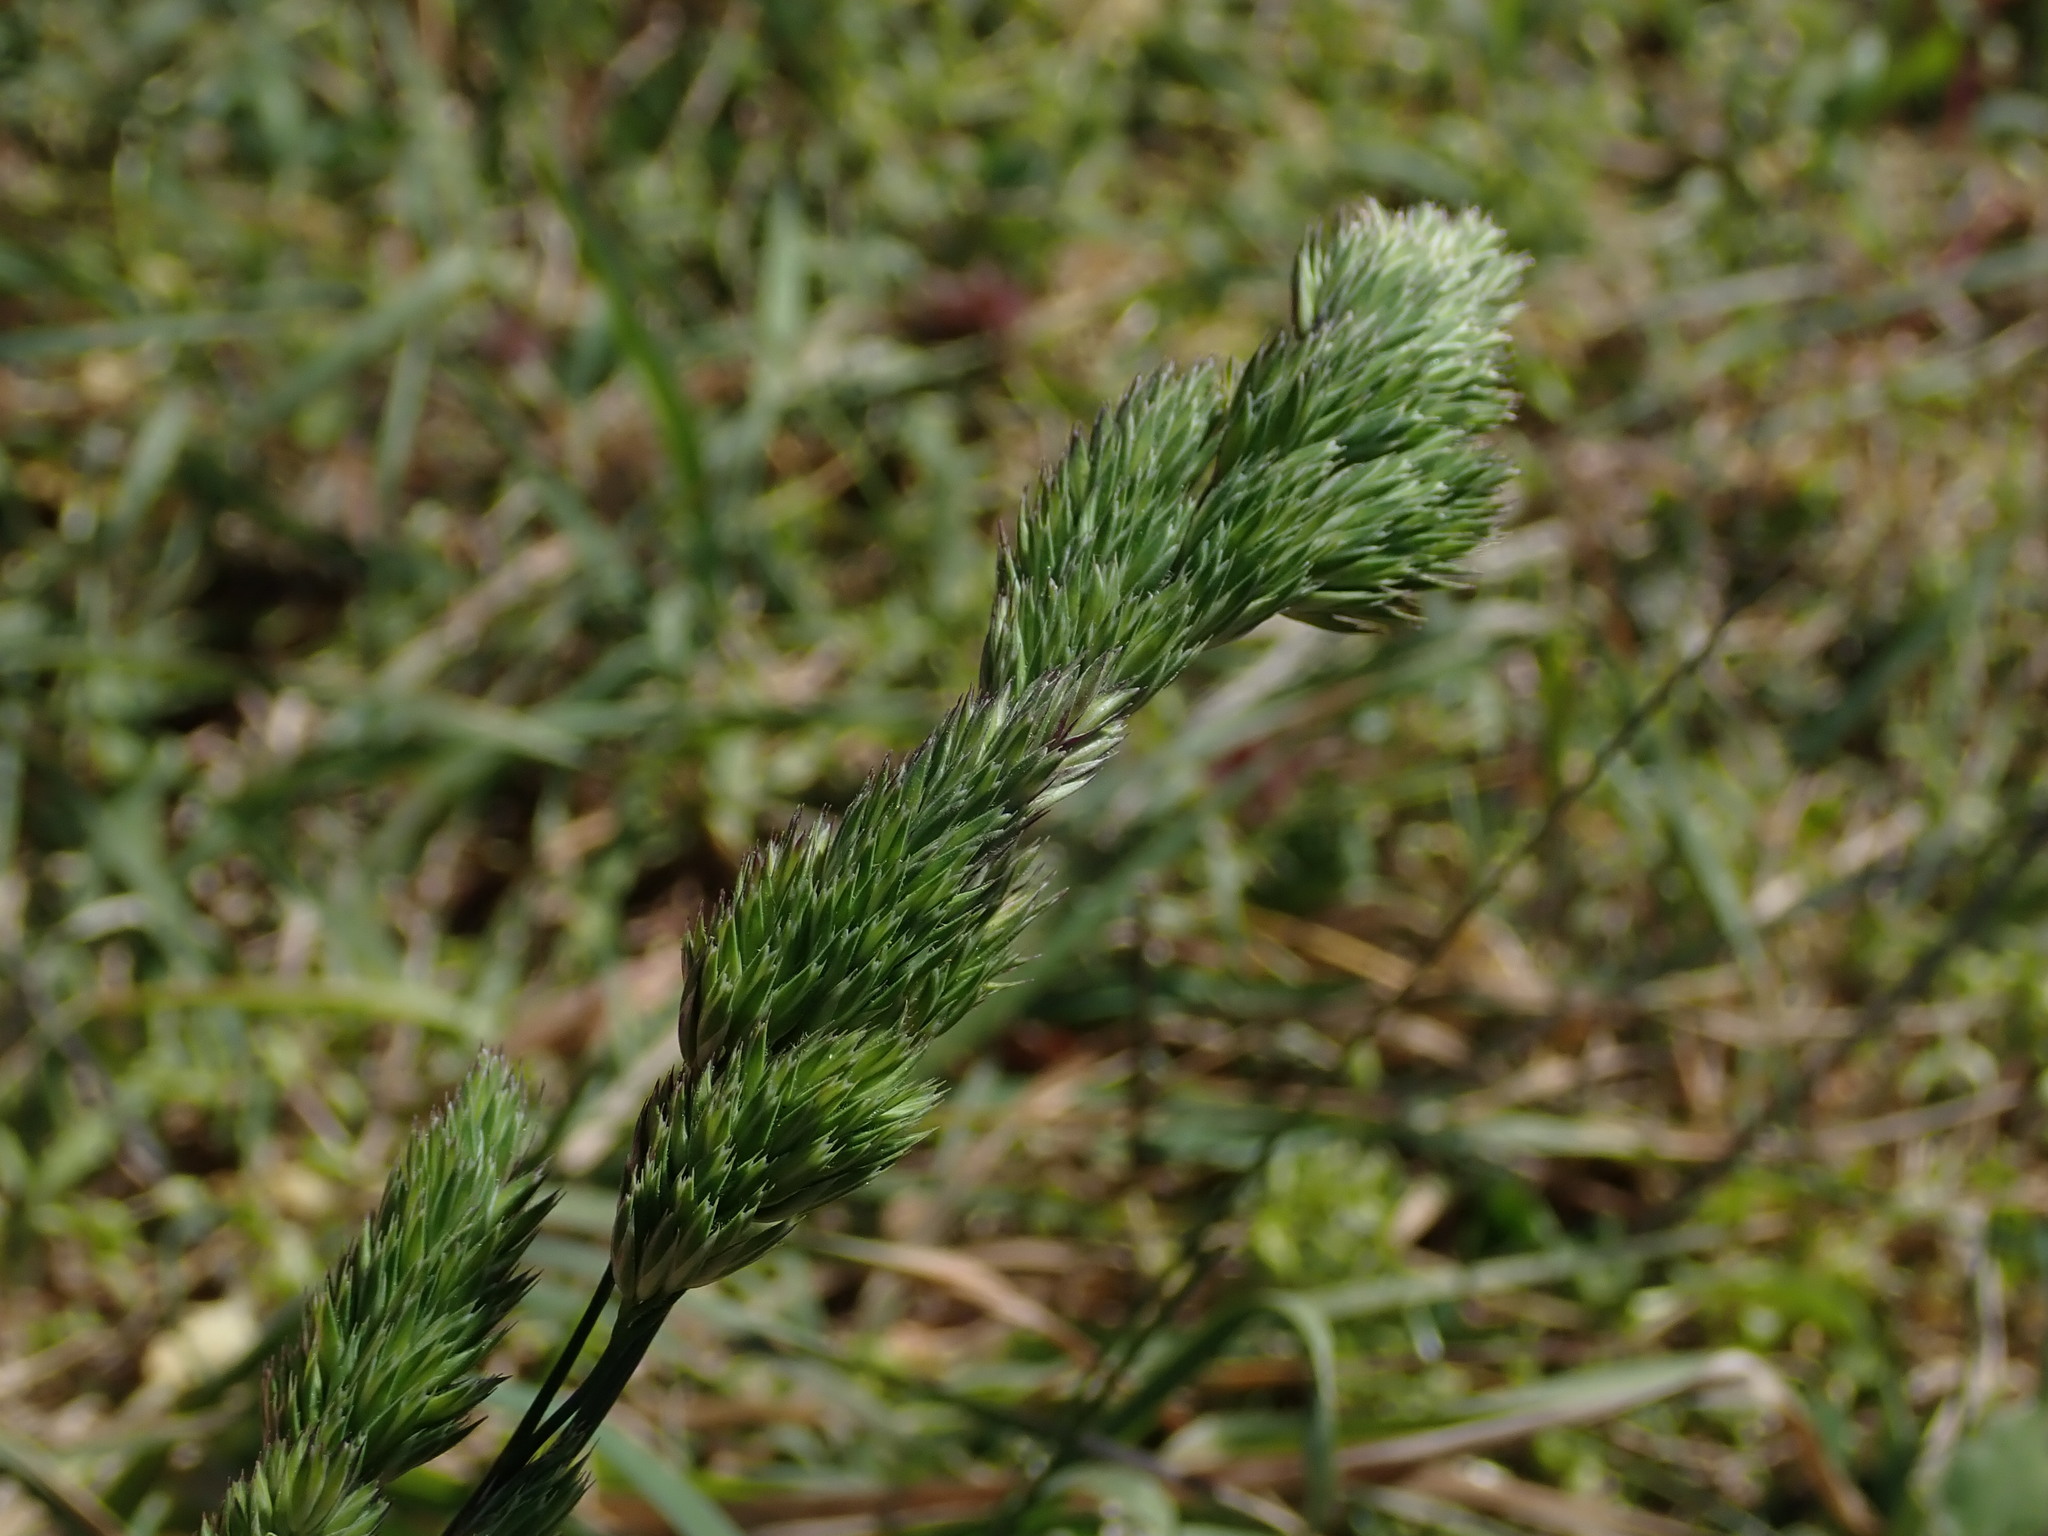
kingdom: Plantae
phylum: Tracheophyta
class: Liliopsida
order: Poales
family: Poaceae
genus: Dactylis
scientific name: Dactylis glomerata
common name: Orchardgrass
